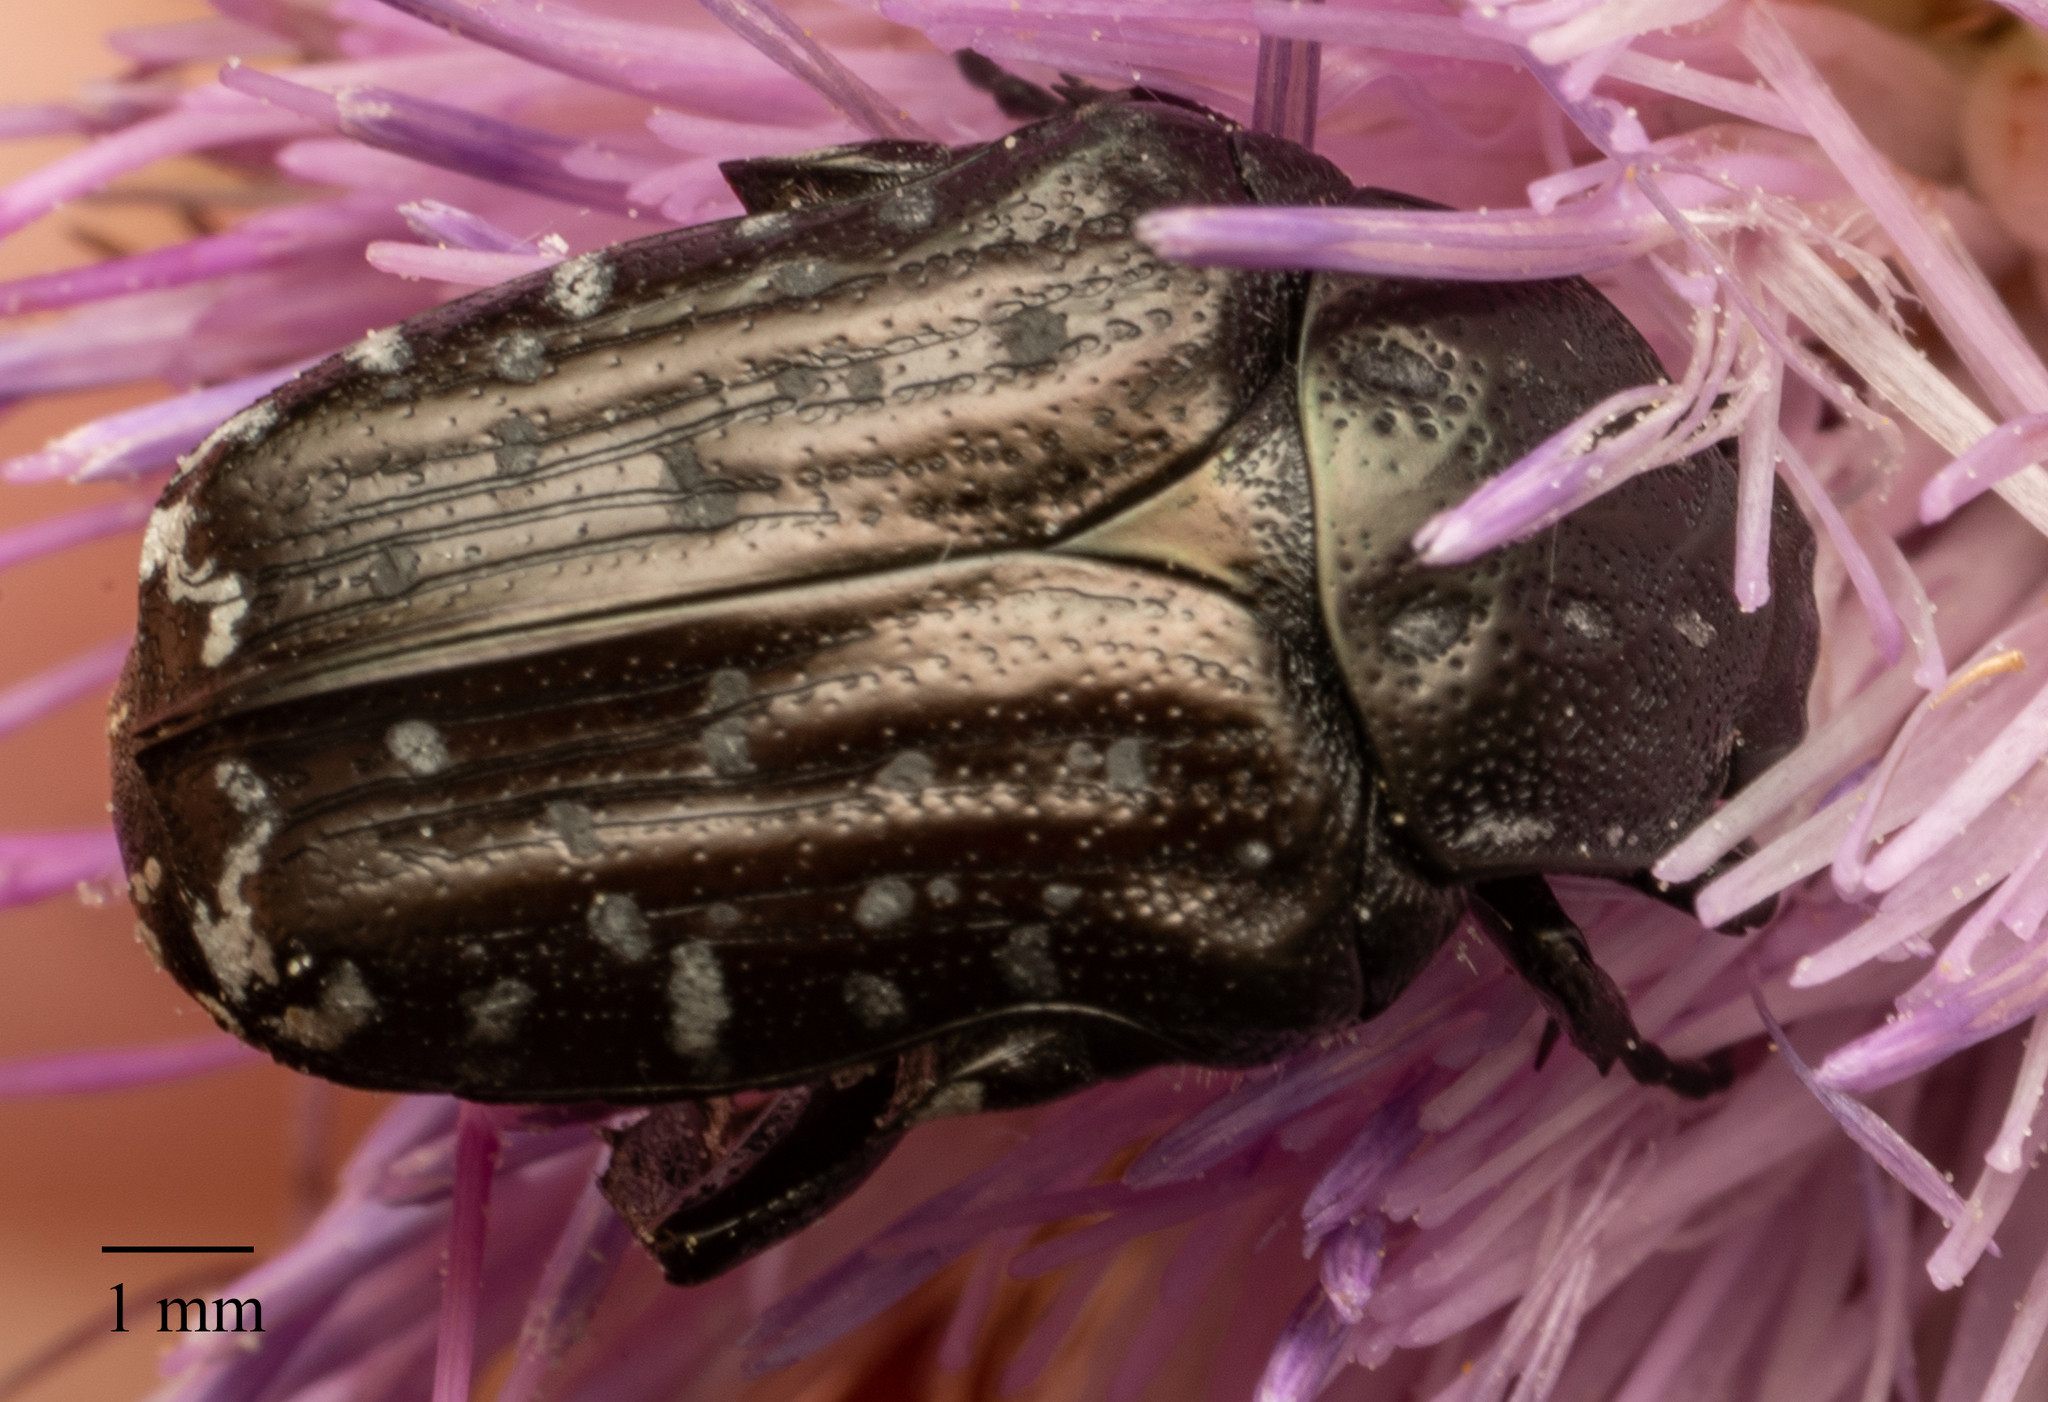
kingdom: Animalia
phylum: Arthropoda
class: Insecta
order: Coleoptera
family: Scarabaeidae
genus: Oxythyrea
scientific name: Oxythyrea funesta
